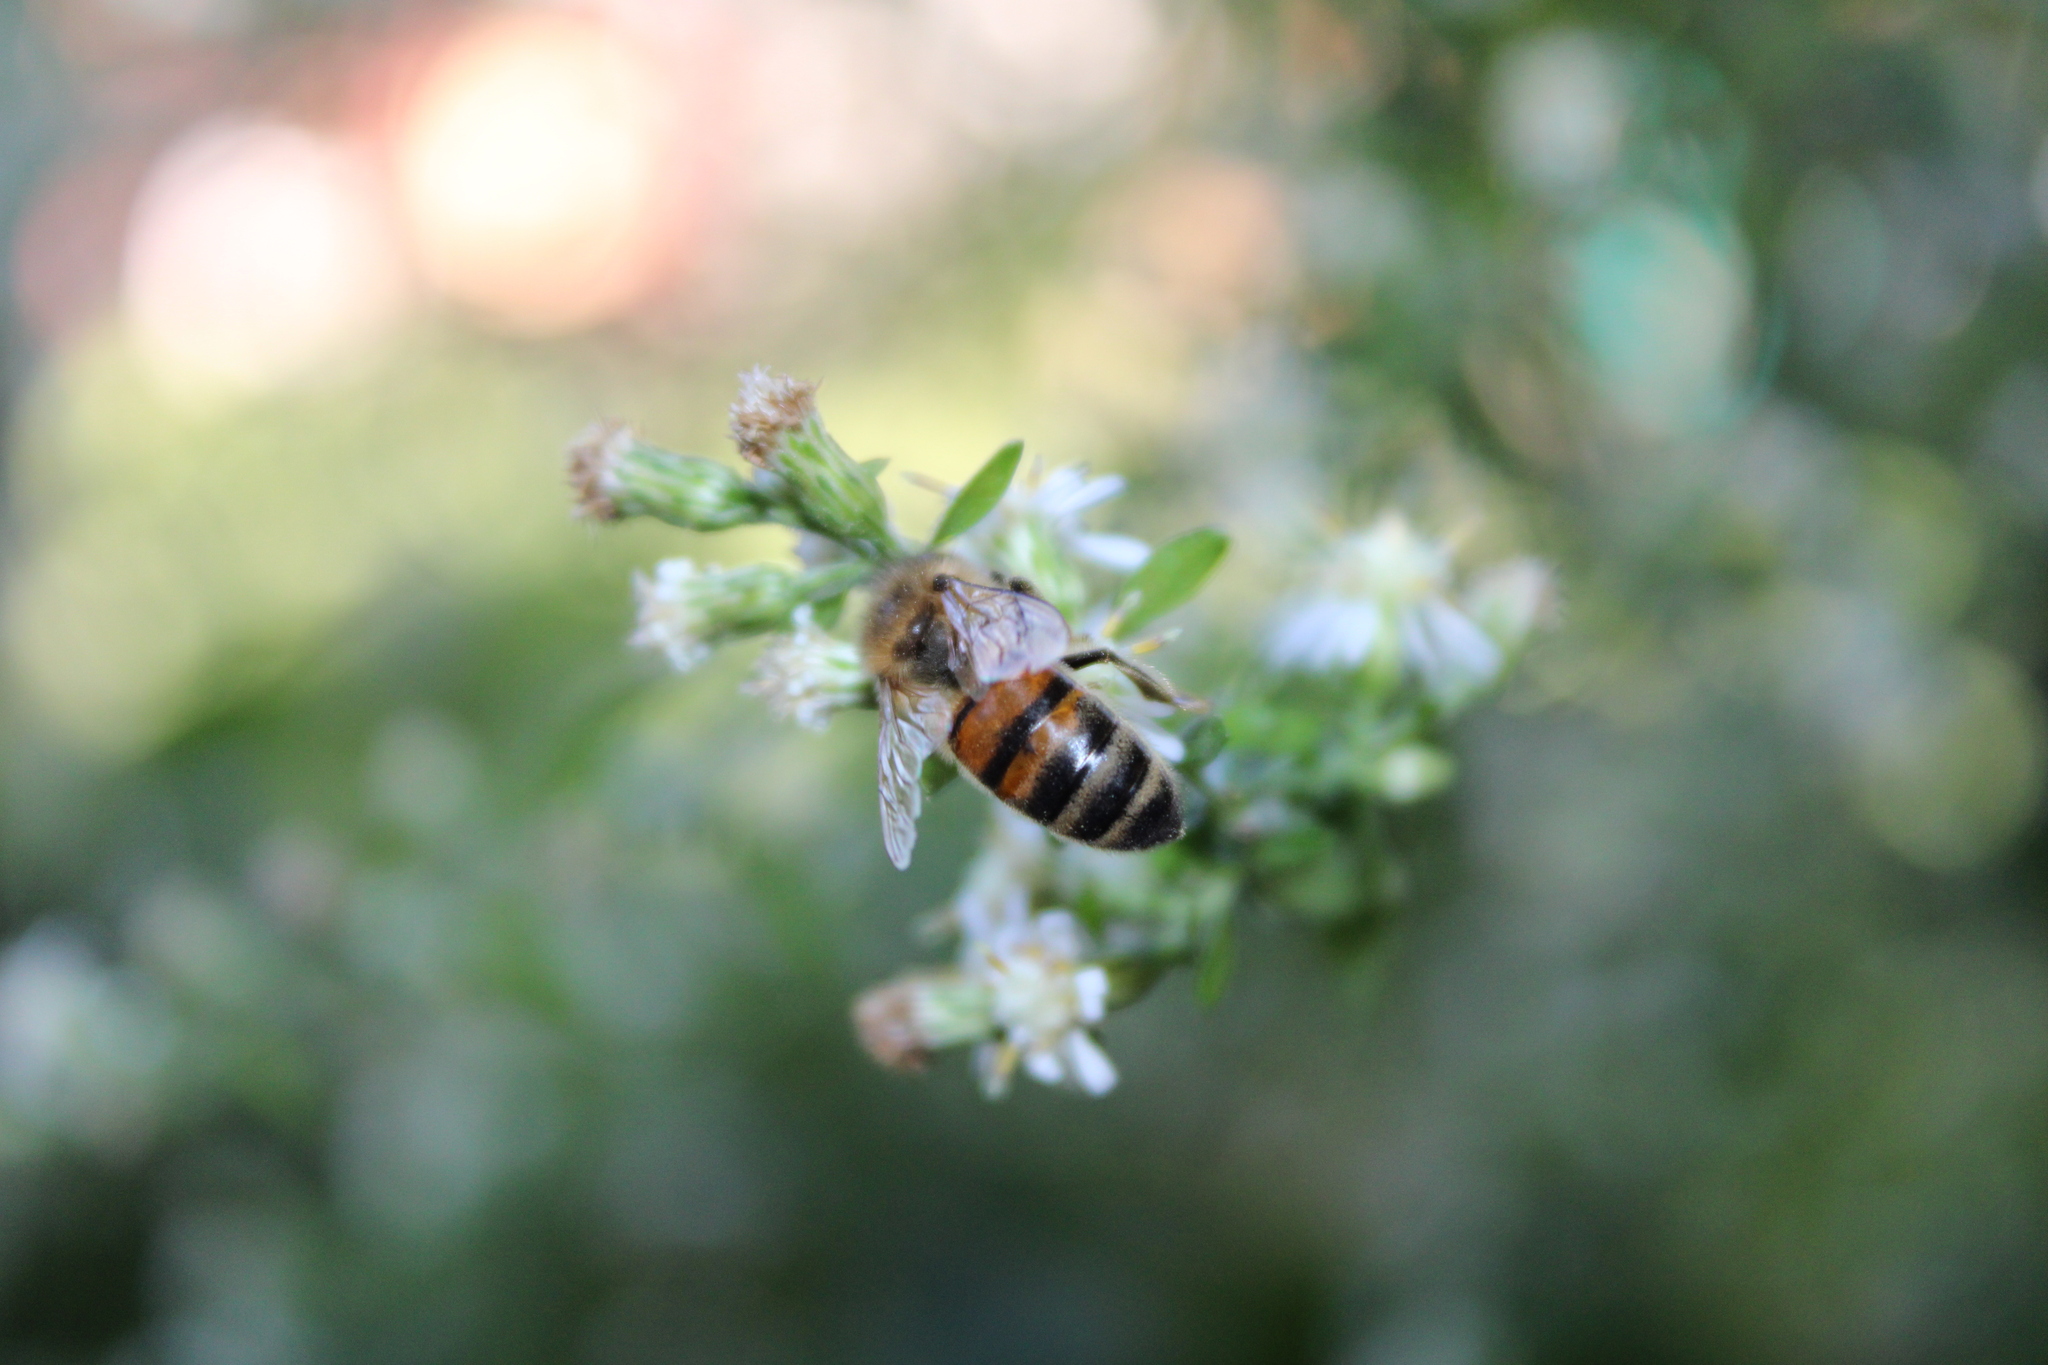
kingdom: Animalia
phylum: Arthropoda
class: Insecta
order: Hymenoptera
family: Apidae
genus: Apis
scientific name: Apis mellifera
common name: Honey bee
